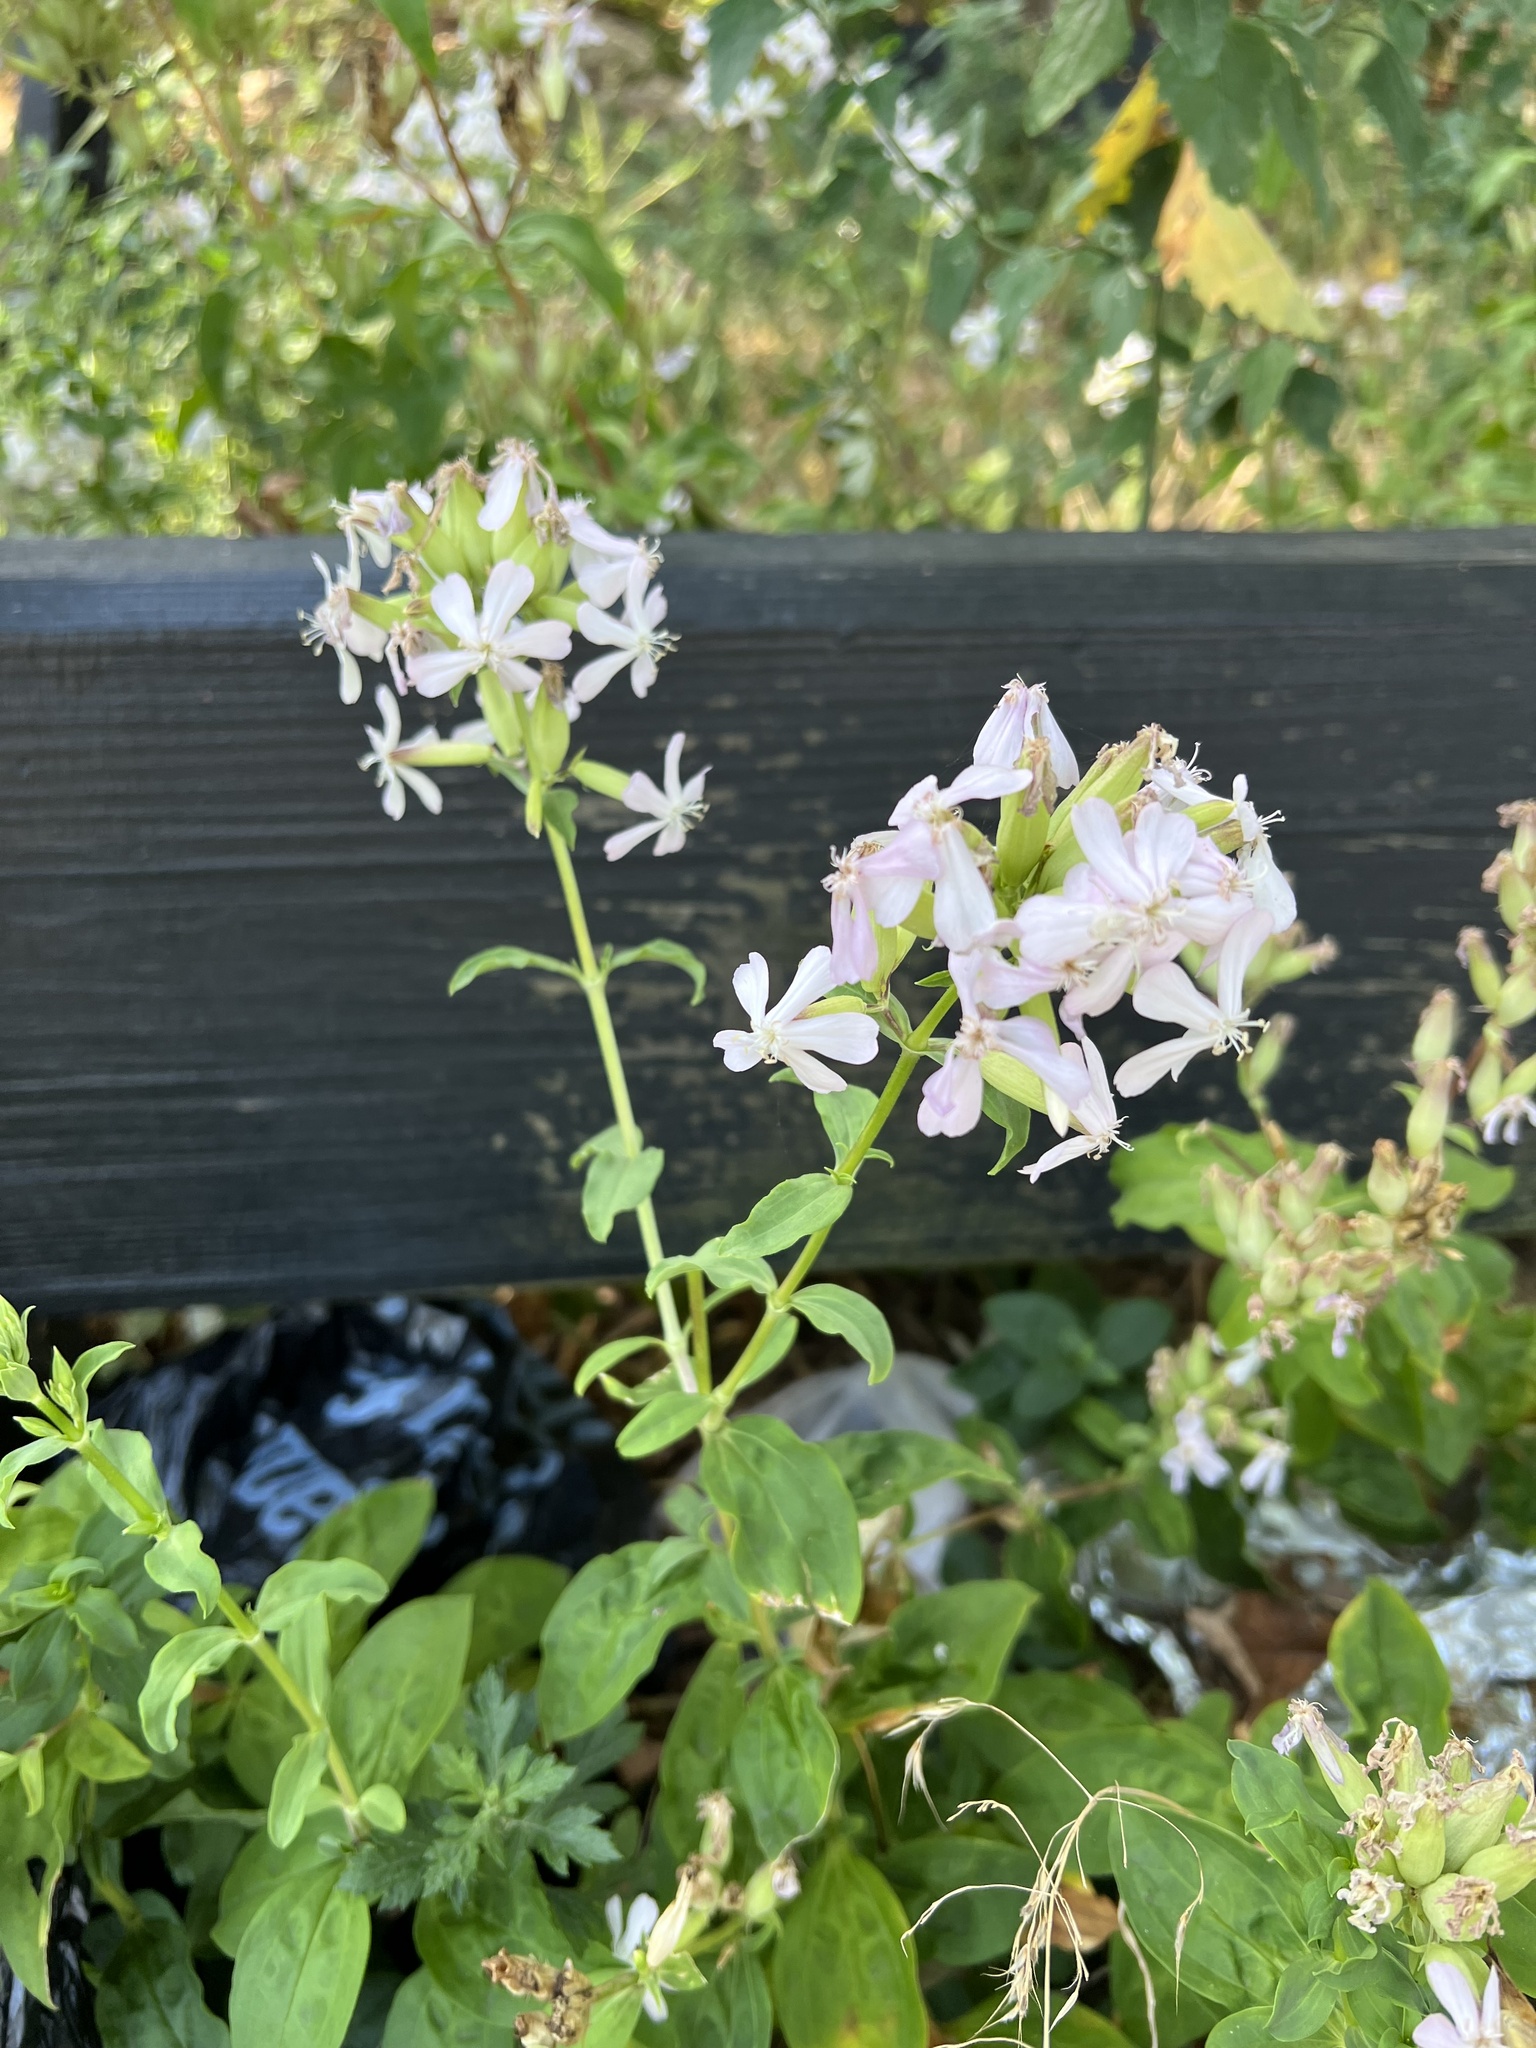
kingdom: Plantae
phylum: Tracheophyta
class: Magnoliopsida
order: Caryophyllales
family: Caryophyllaceae
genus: Saponaria
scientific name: Saponaria officinalis
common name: Soapwort
